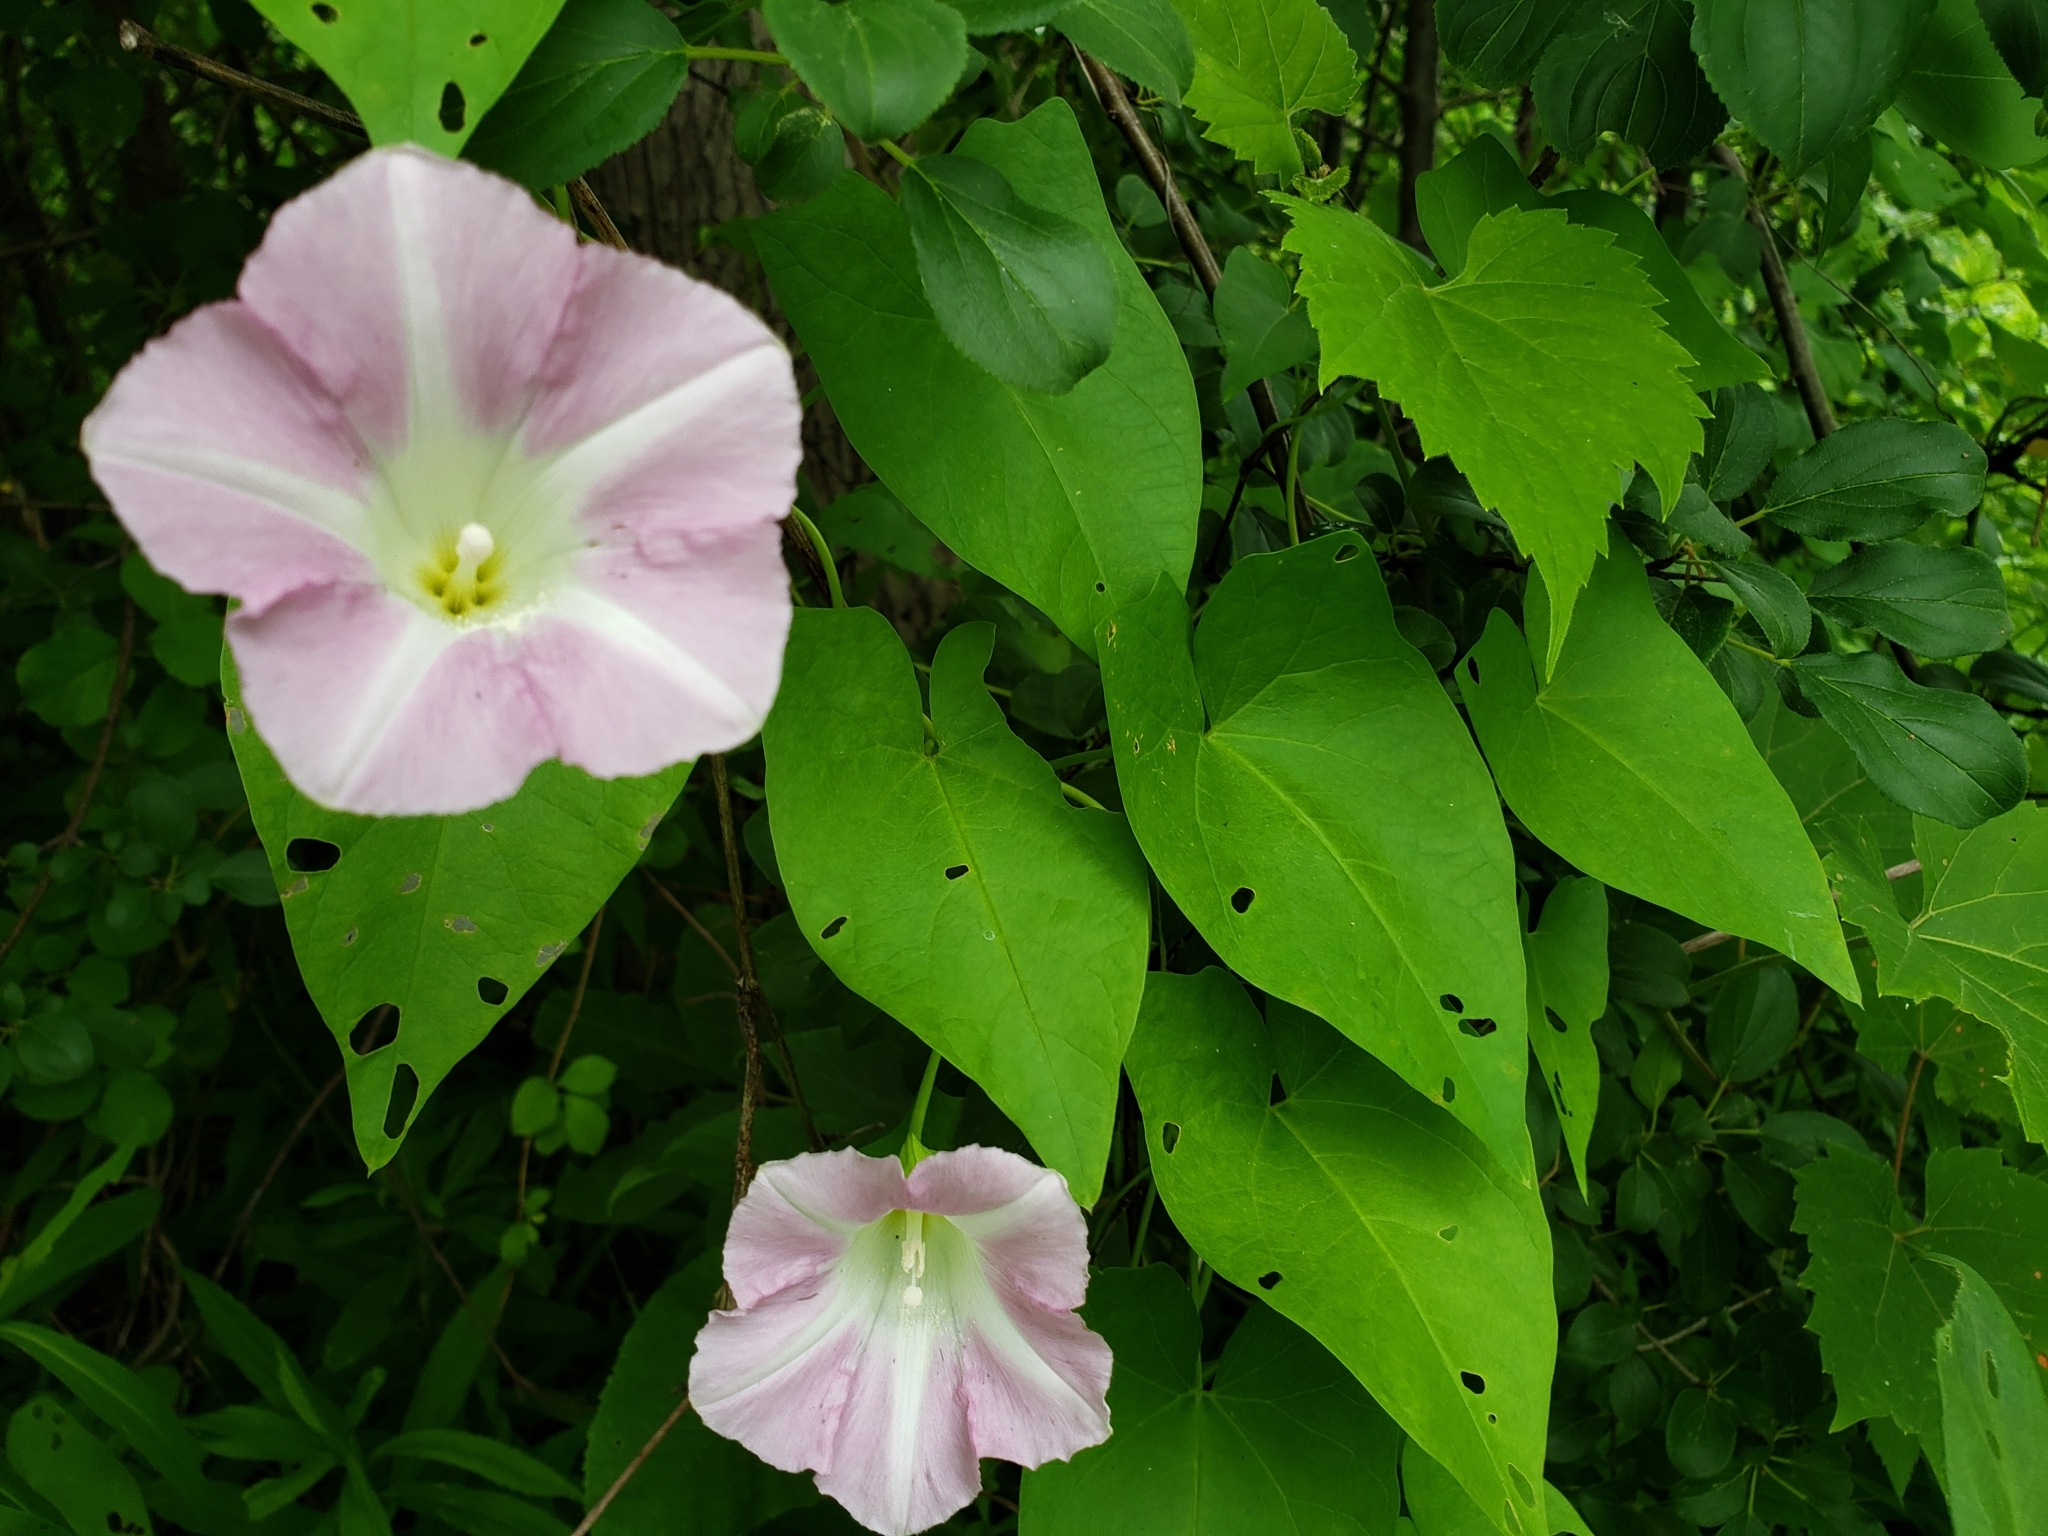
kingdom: Plantae
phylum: Tracheophyta
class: Magnoliopsida
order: Solanales
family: Convolvulaceae
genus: Calystegia
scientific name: Calystegia sepium
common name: Hedge bindweed
